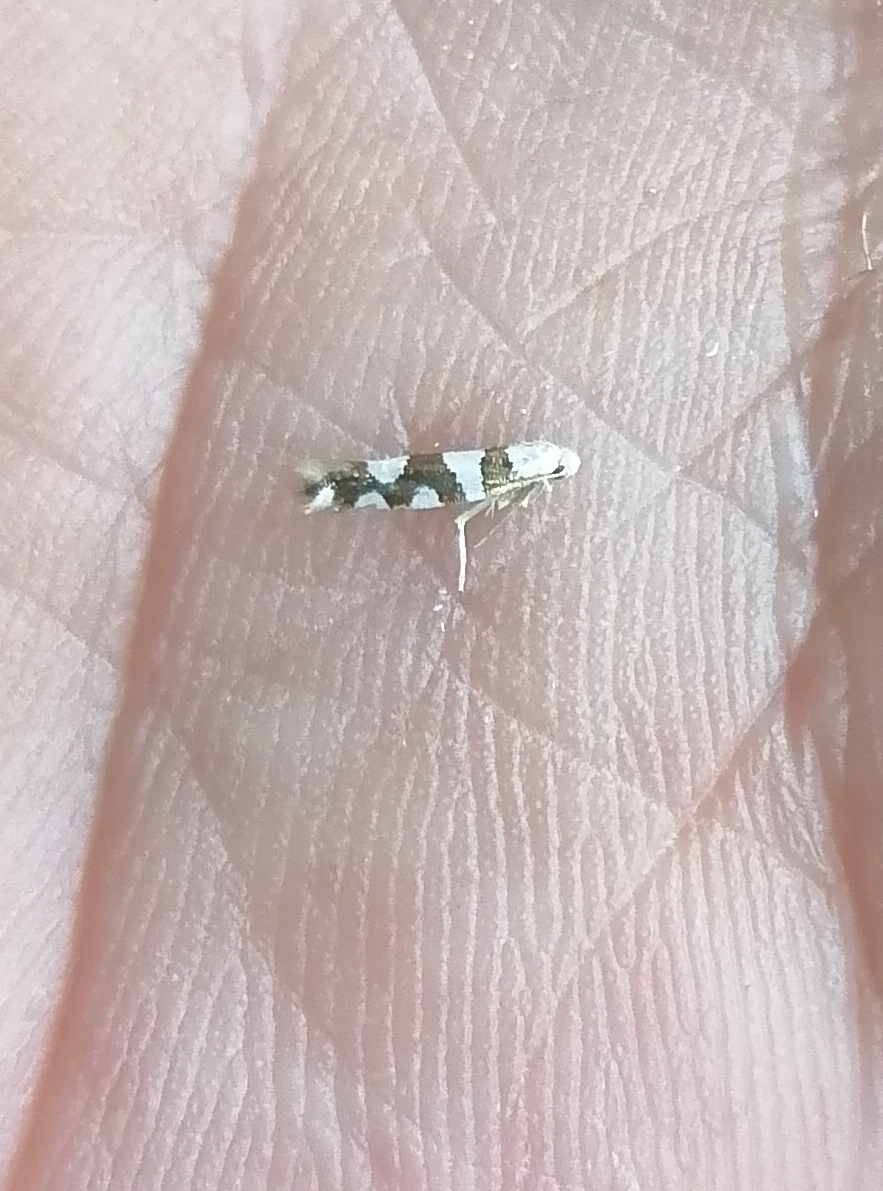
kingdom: Animalia
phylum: Arthropoda
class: Insecta
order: Lepidoptera
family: Argyresthiidae
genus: Argyresthia
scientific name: Argyresthia brockeella
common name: Gold-ribbon argent
